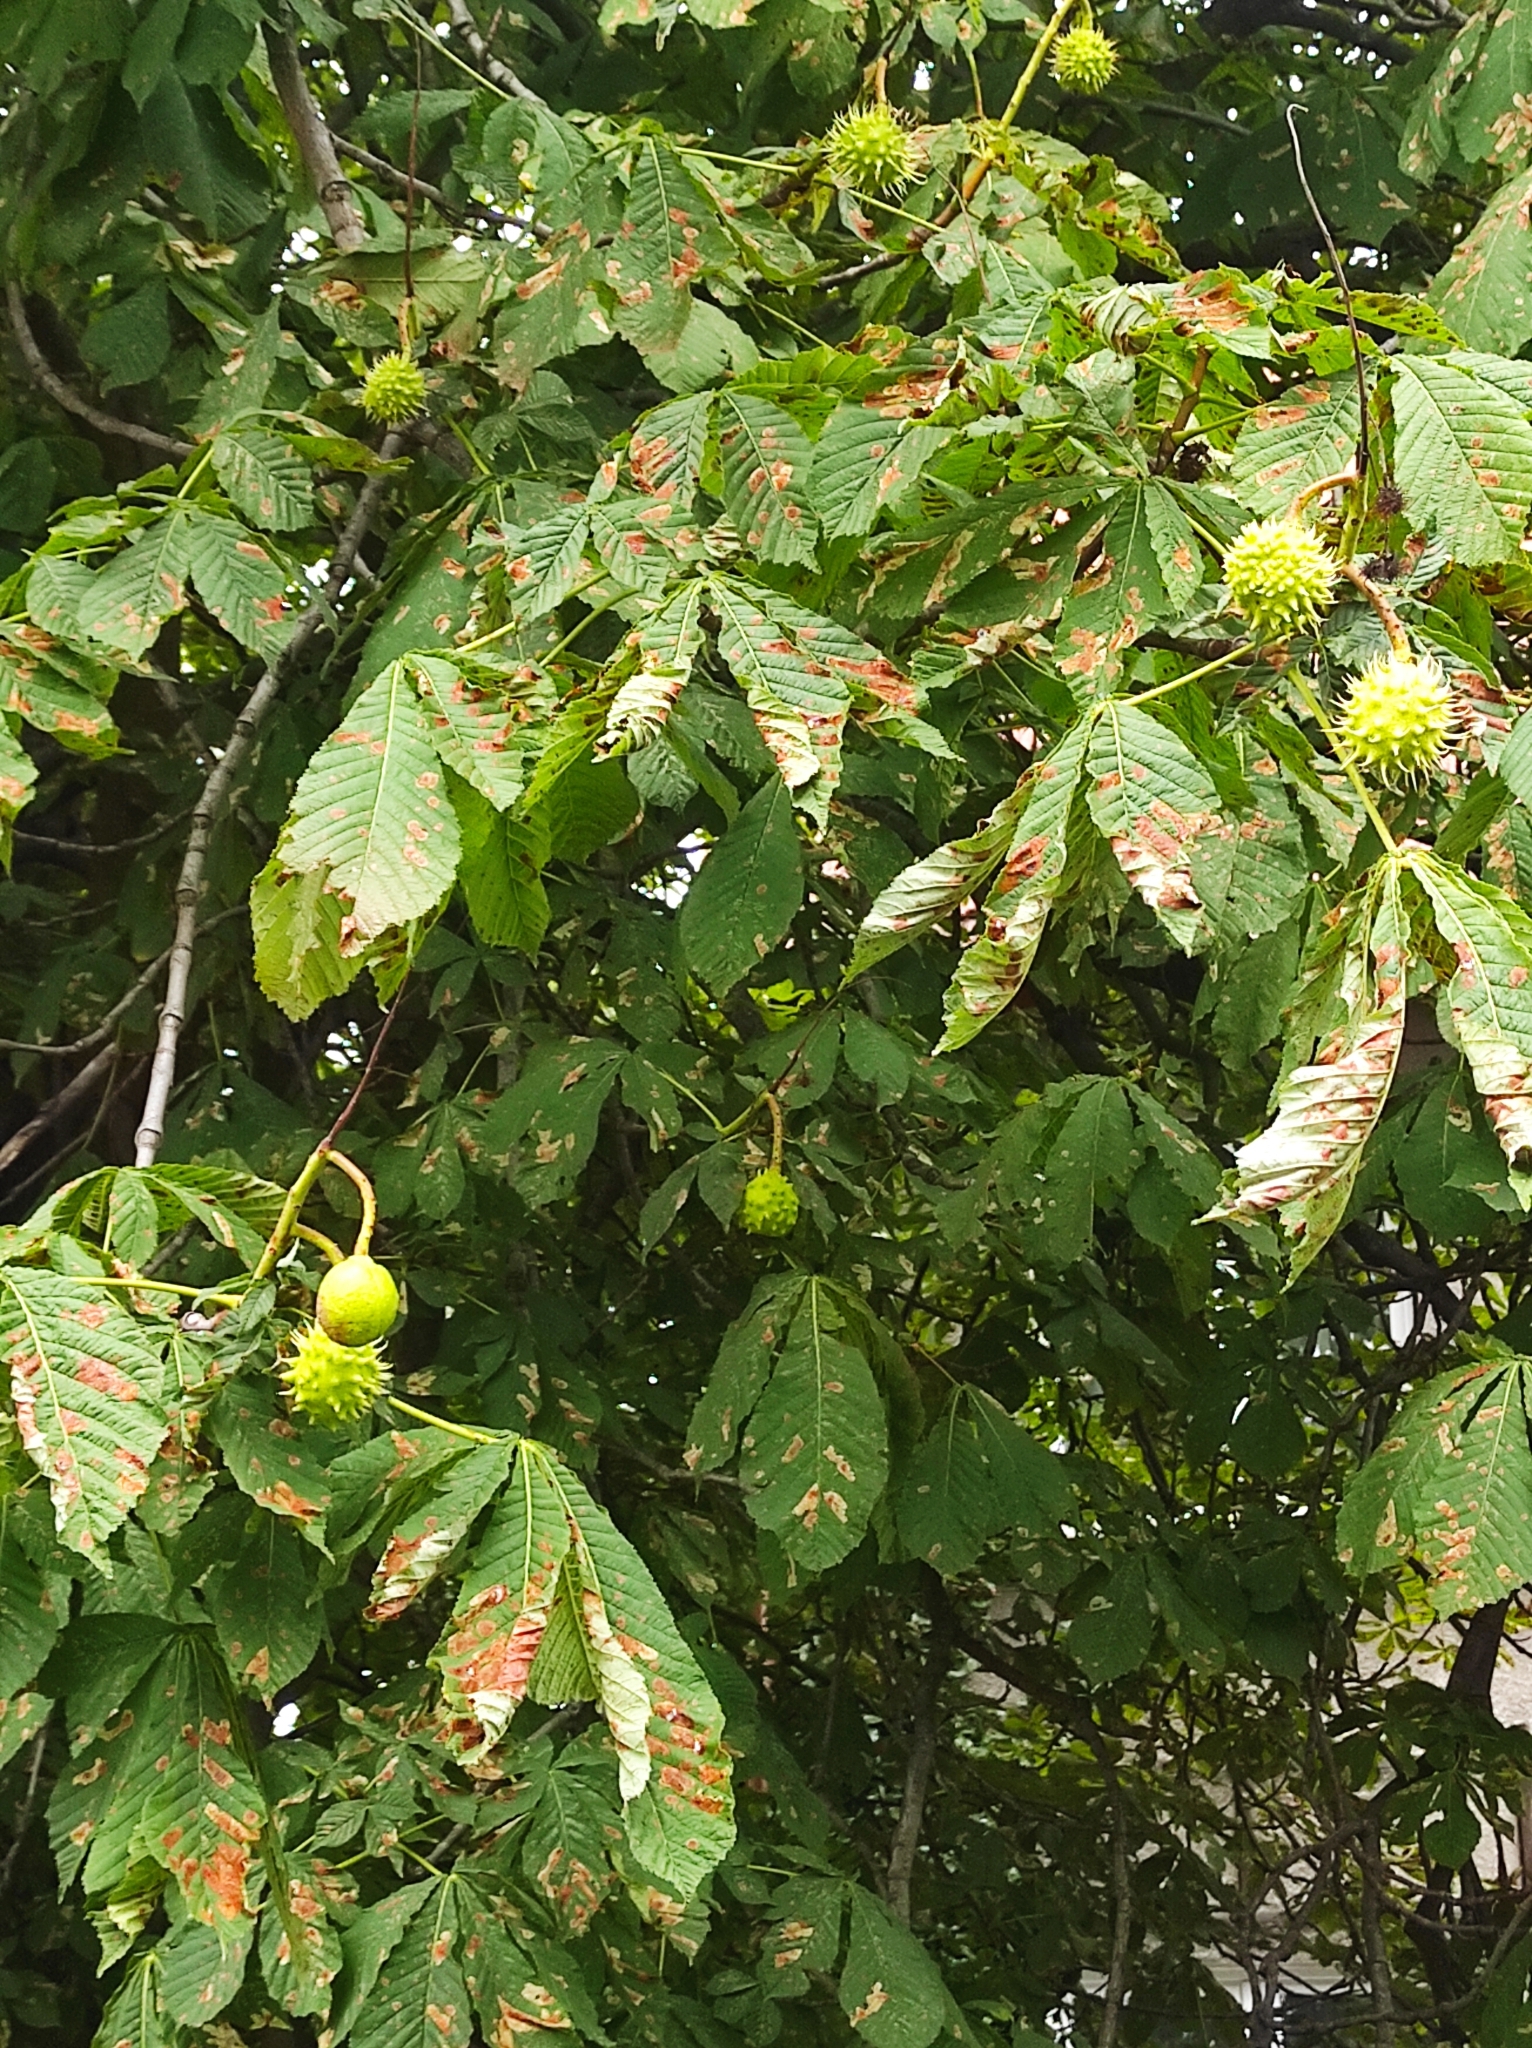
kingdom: Plantae
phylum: Tracheophyta
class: Magnoliopsida
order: Sapindales
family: Sapindaceae
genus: Aesculus
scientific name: Aesculus hippocastanum
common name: Horse-chestnut
